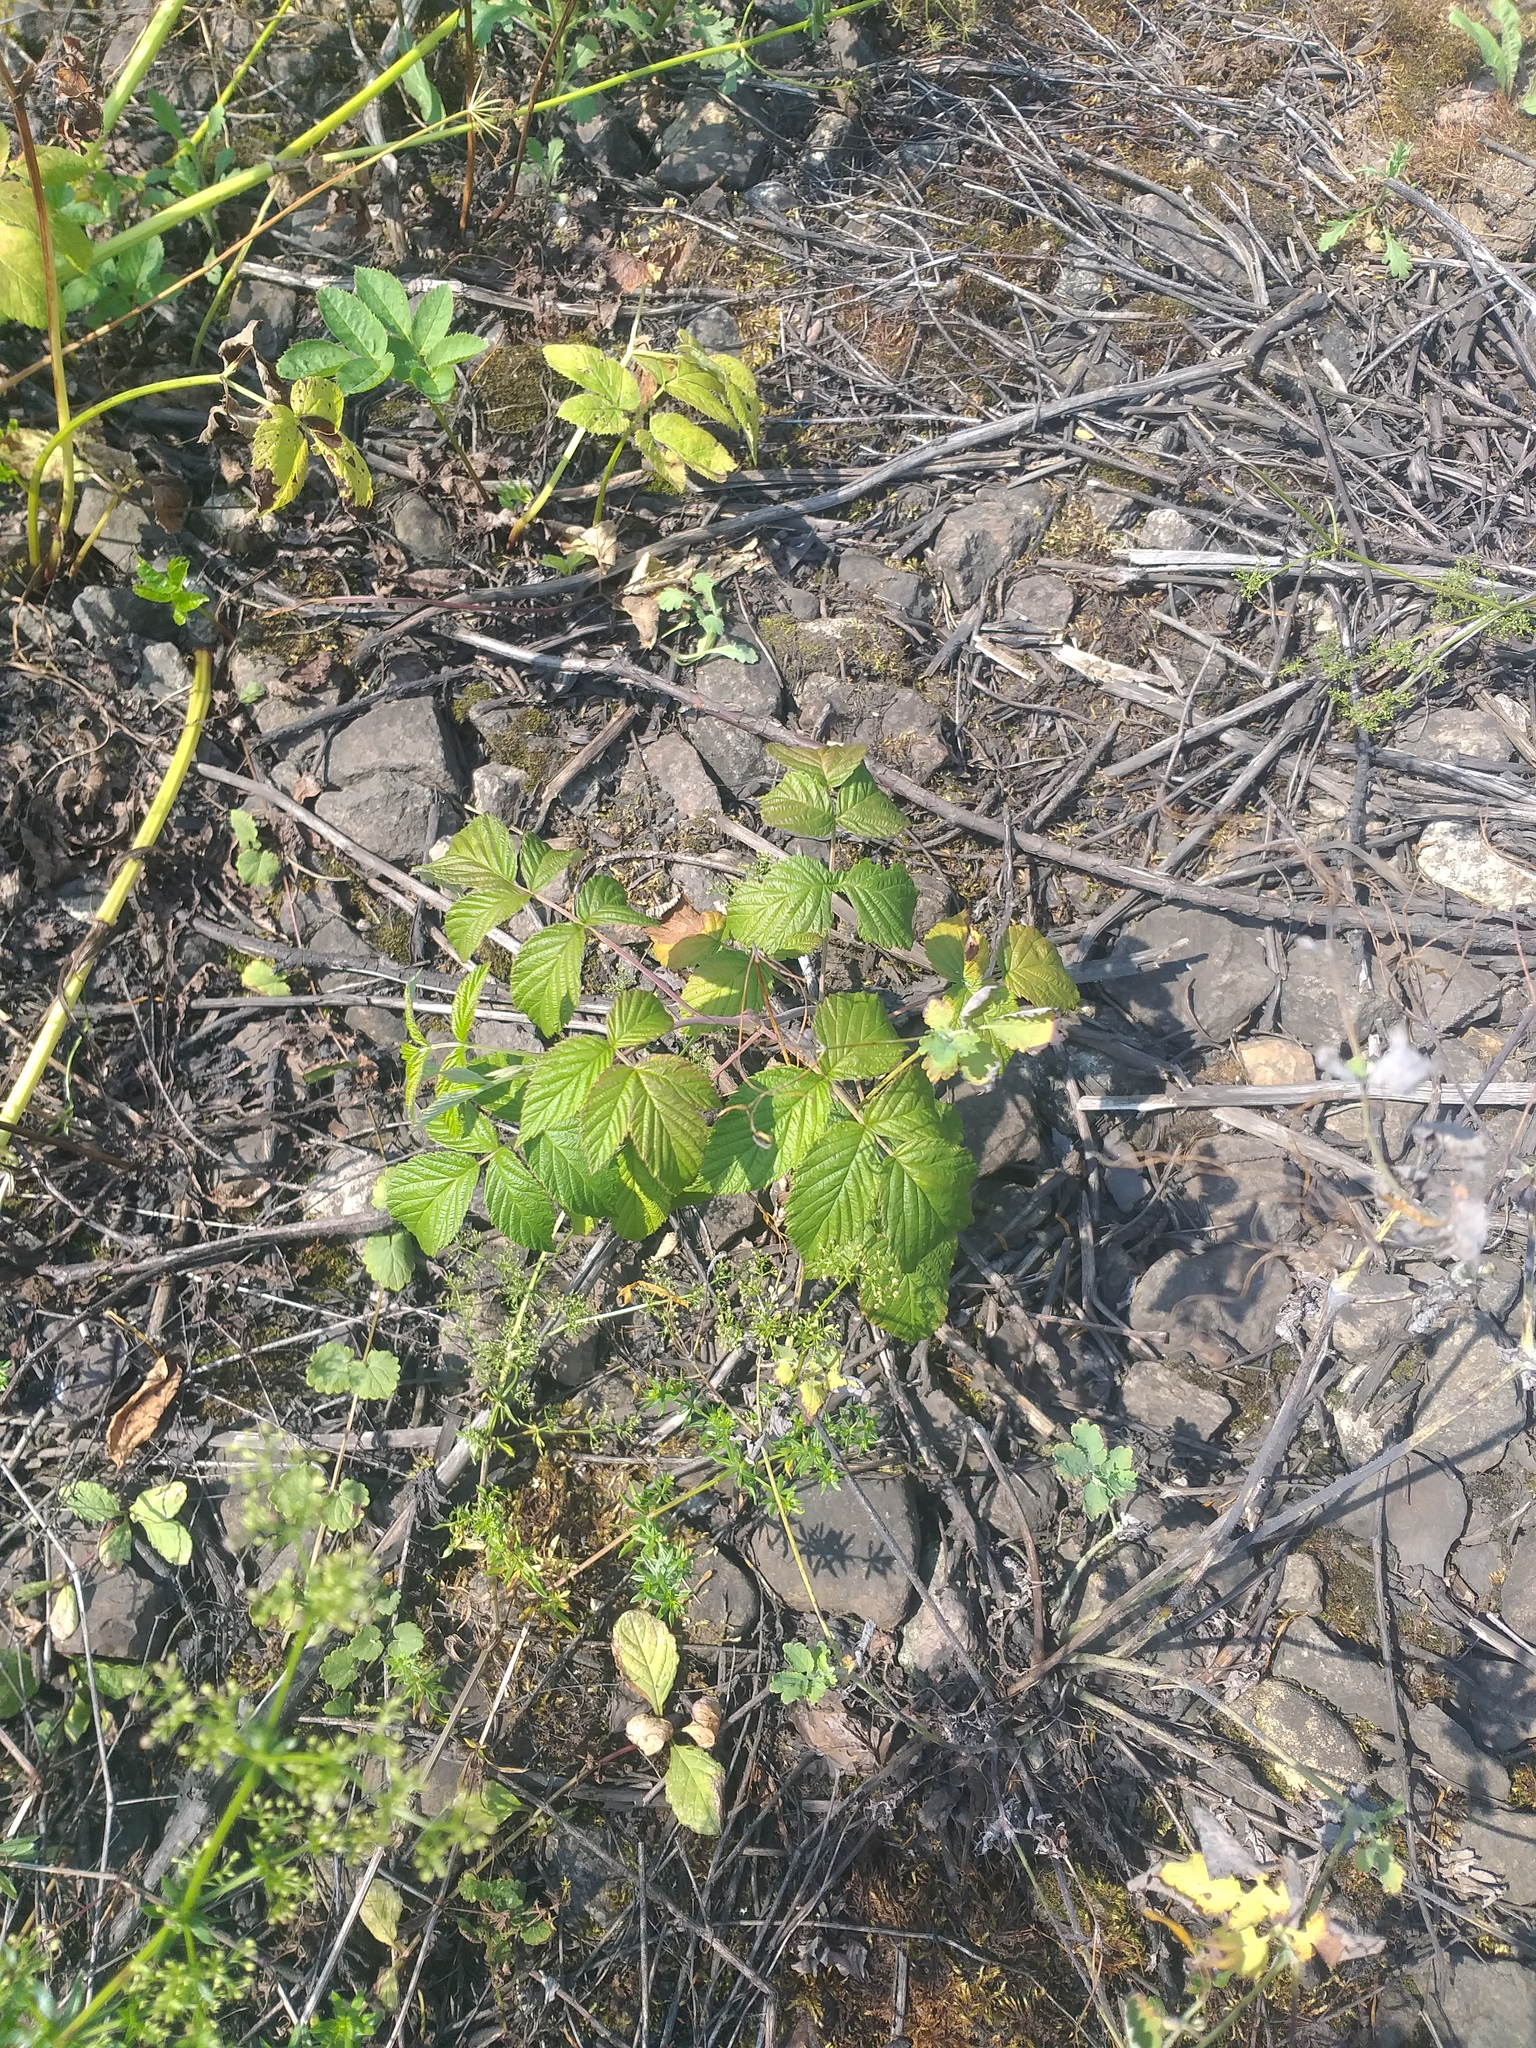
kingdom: Plantae
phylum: Tracheophyta
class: Magnoliopsida
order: Rosales
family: Rosaceae
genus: Rubus
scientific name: Rubus idaeus
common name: Raspberry
